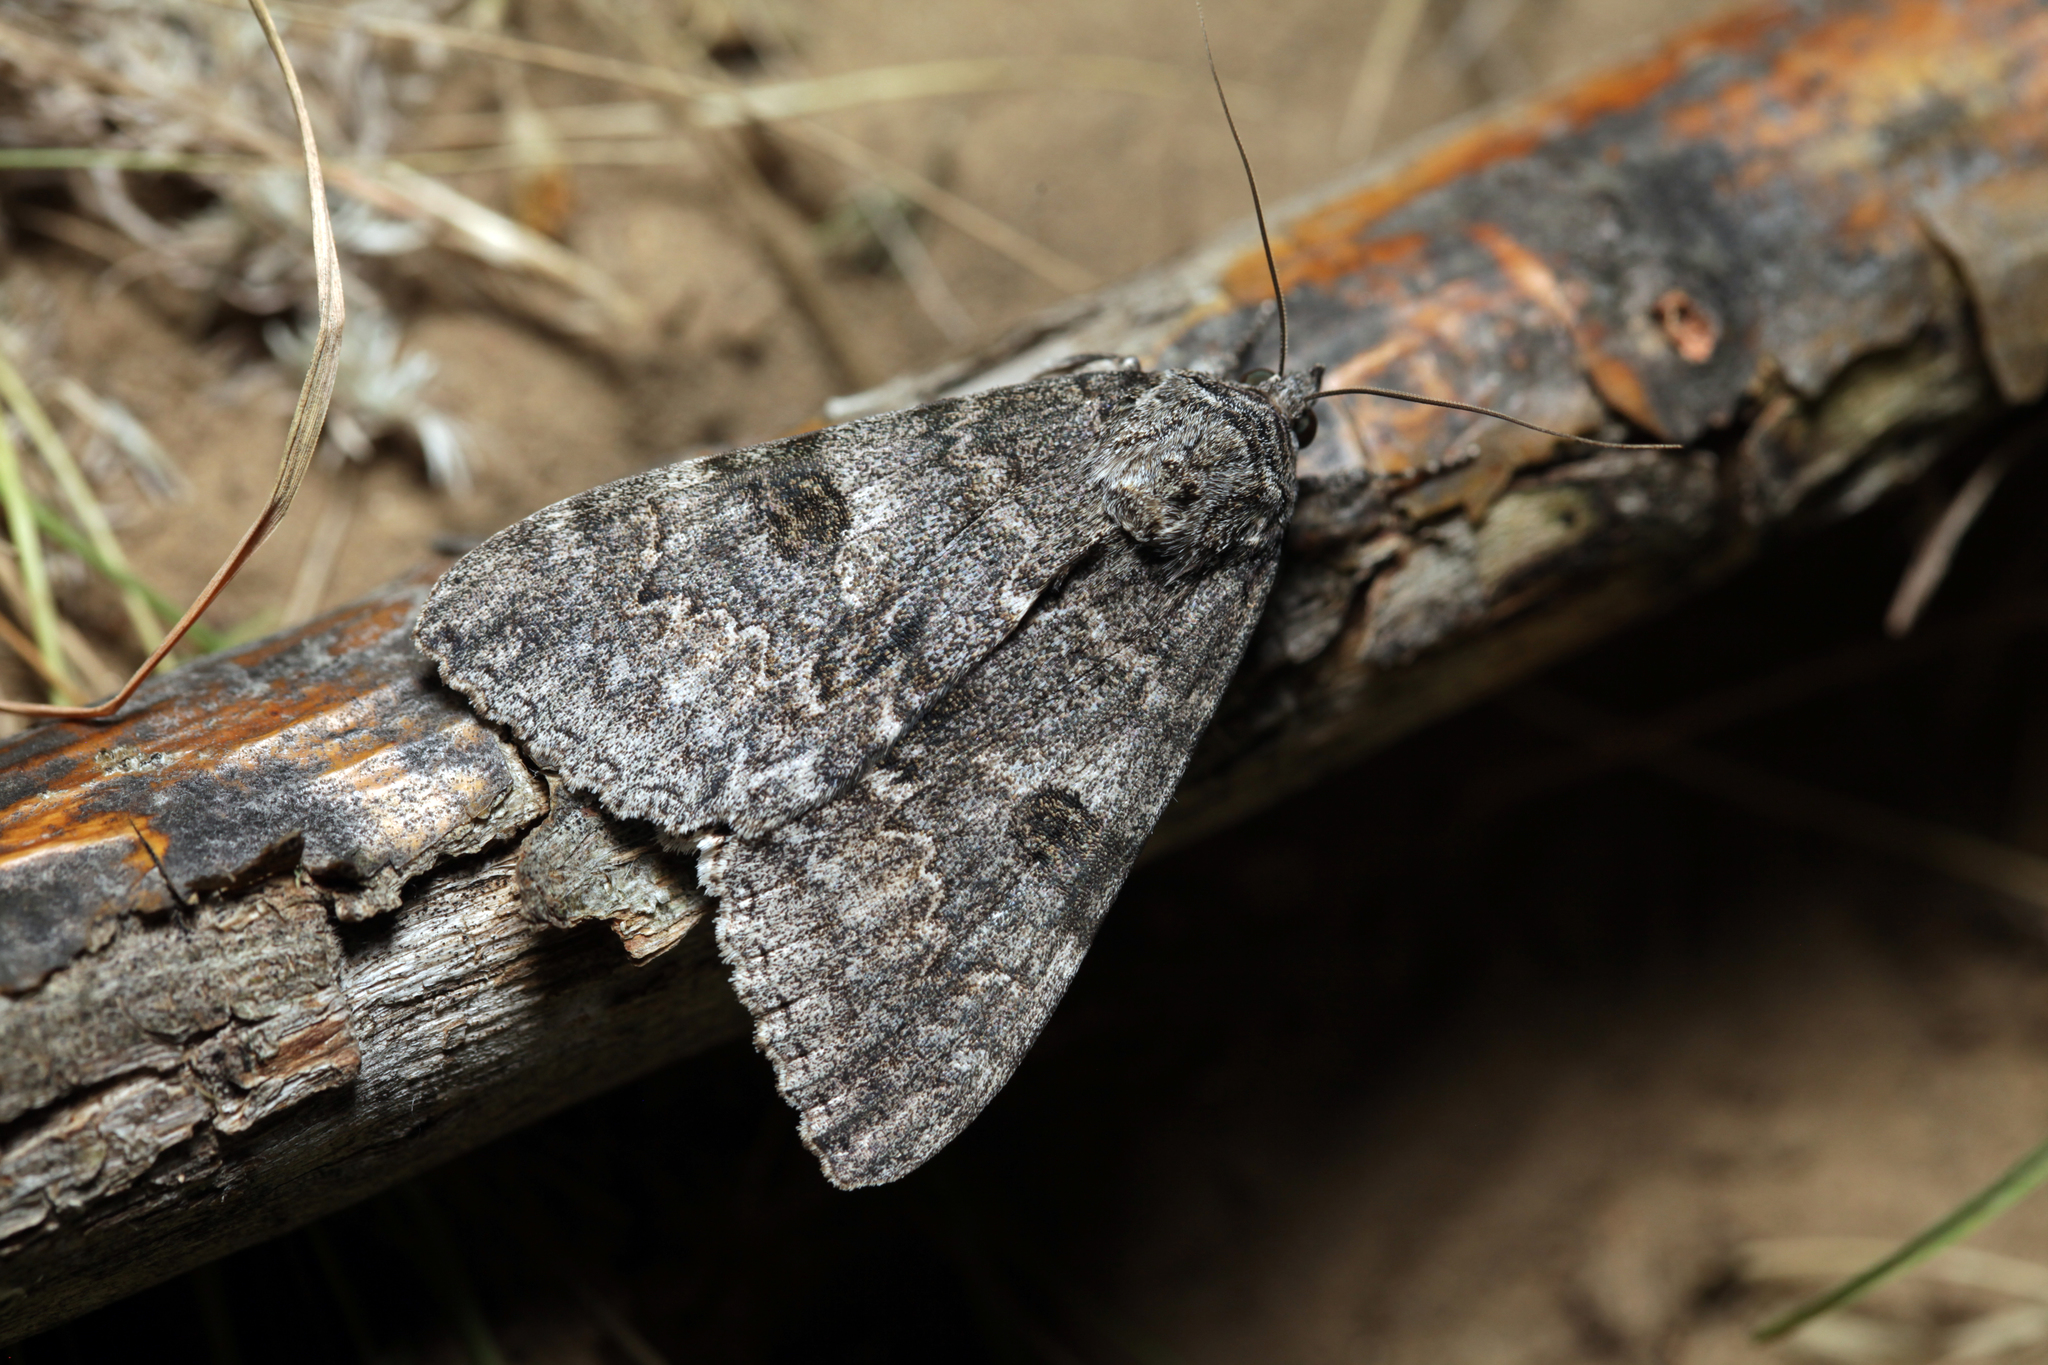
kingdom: Animalia
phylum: Arthropoda
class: Insecta
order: Lepidoptera
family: Erebidae
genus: Catocala
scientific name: Catocala nupta
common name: Red underwing
